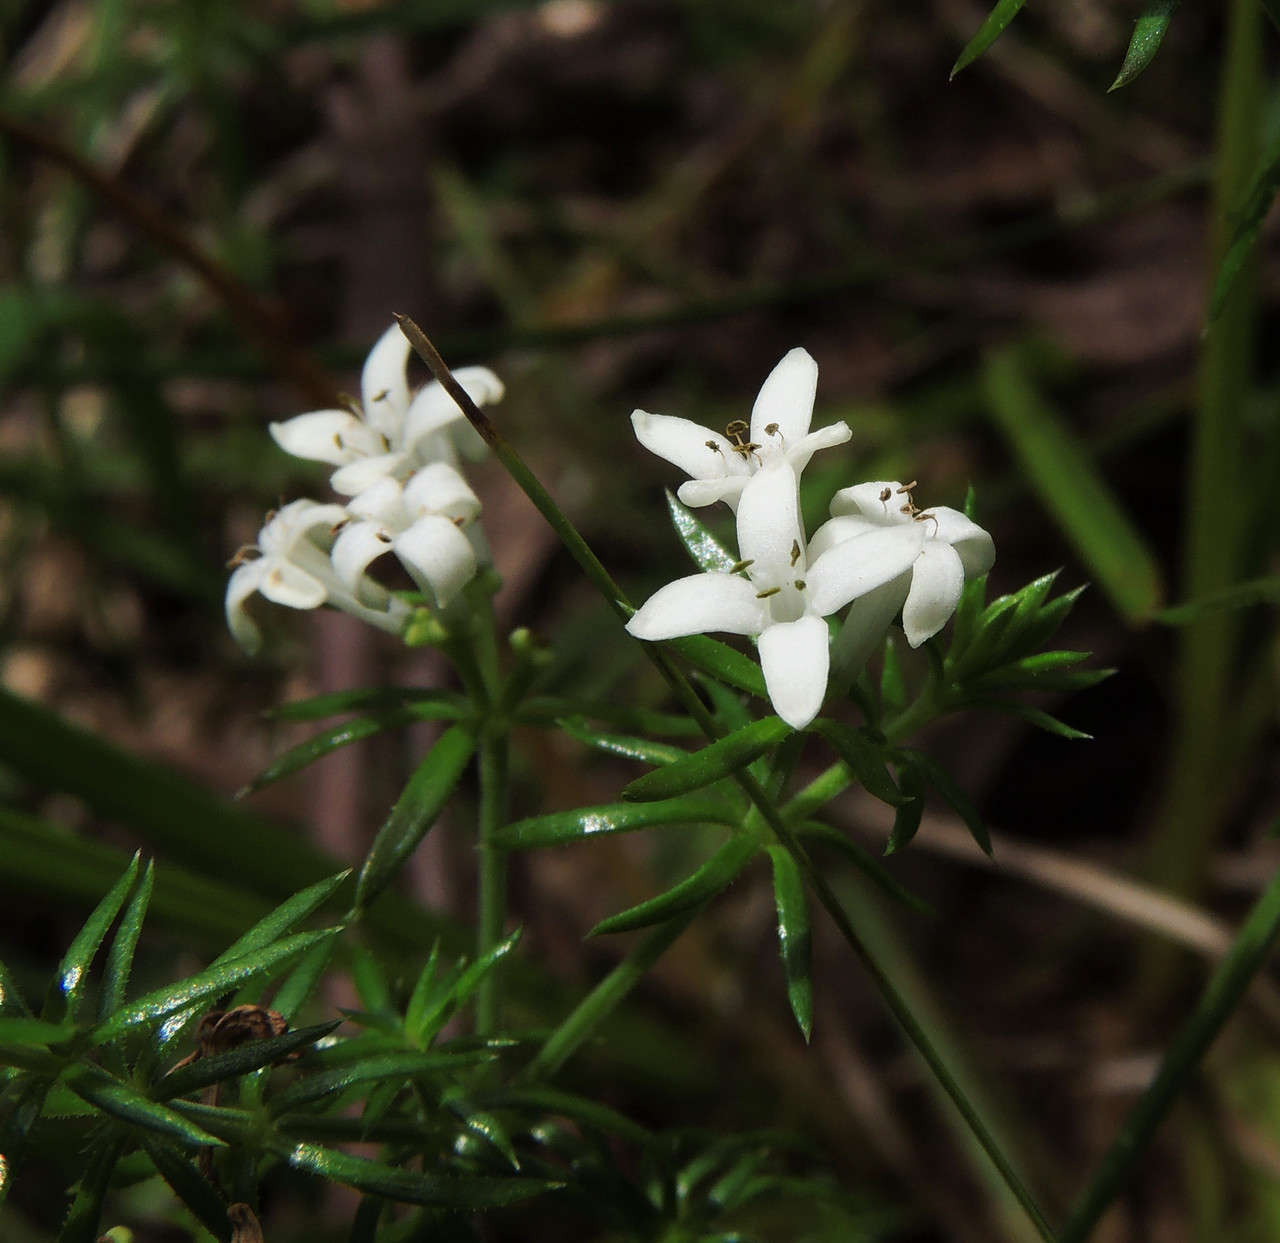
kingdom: Plantae
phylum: Tracheophyta
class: Magnoliopsida
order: Gentianales
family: Rubiaceae
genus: Asperula
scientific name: Asperula scoparia
